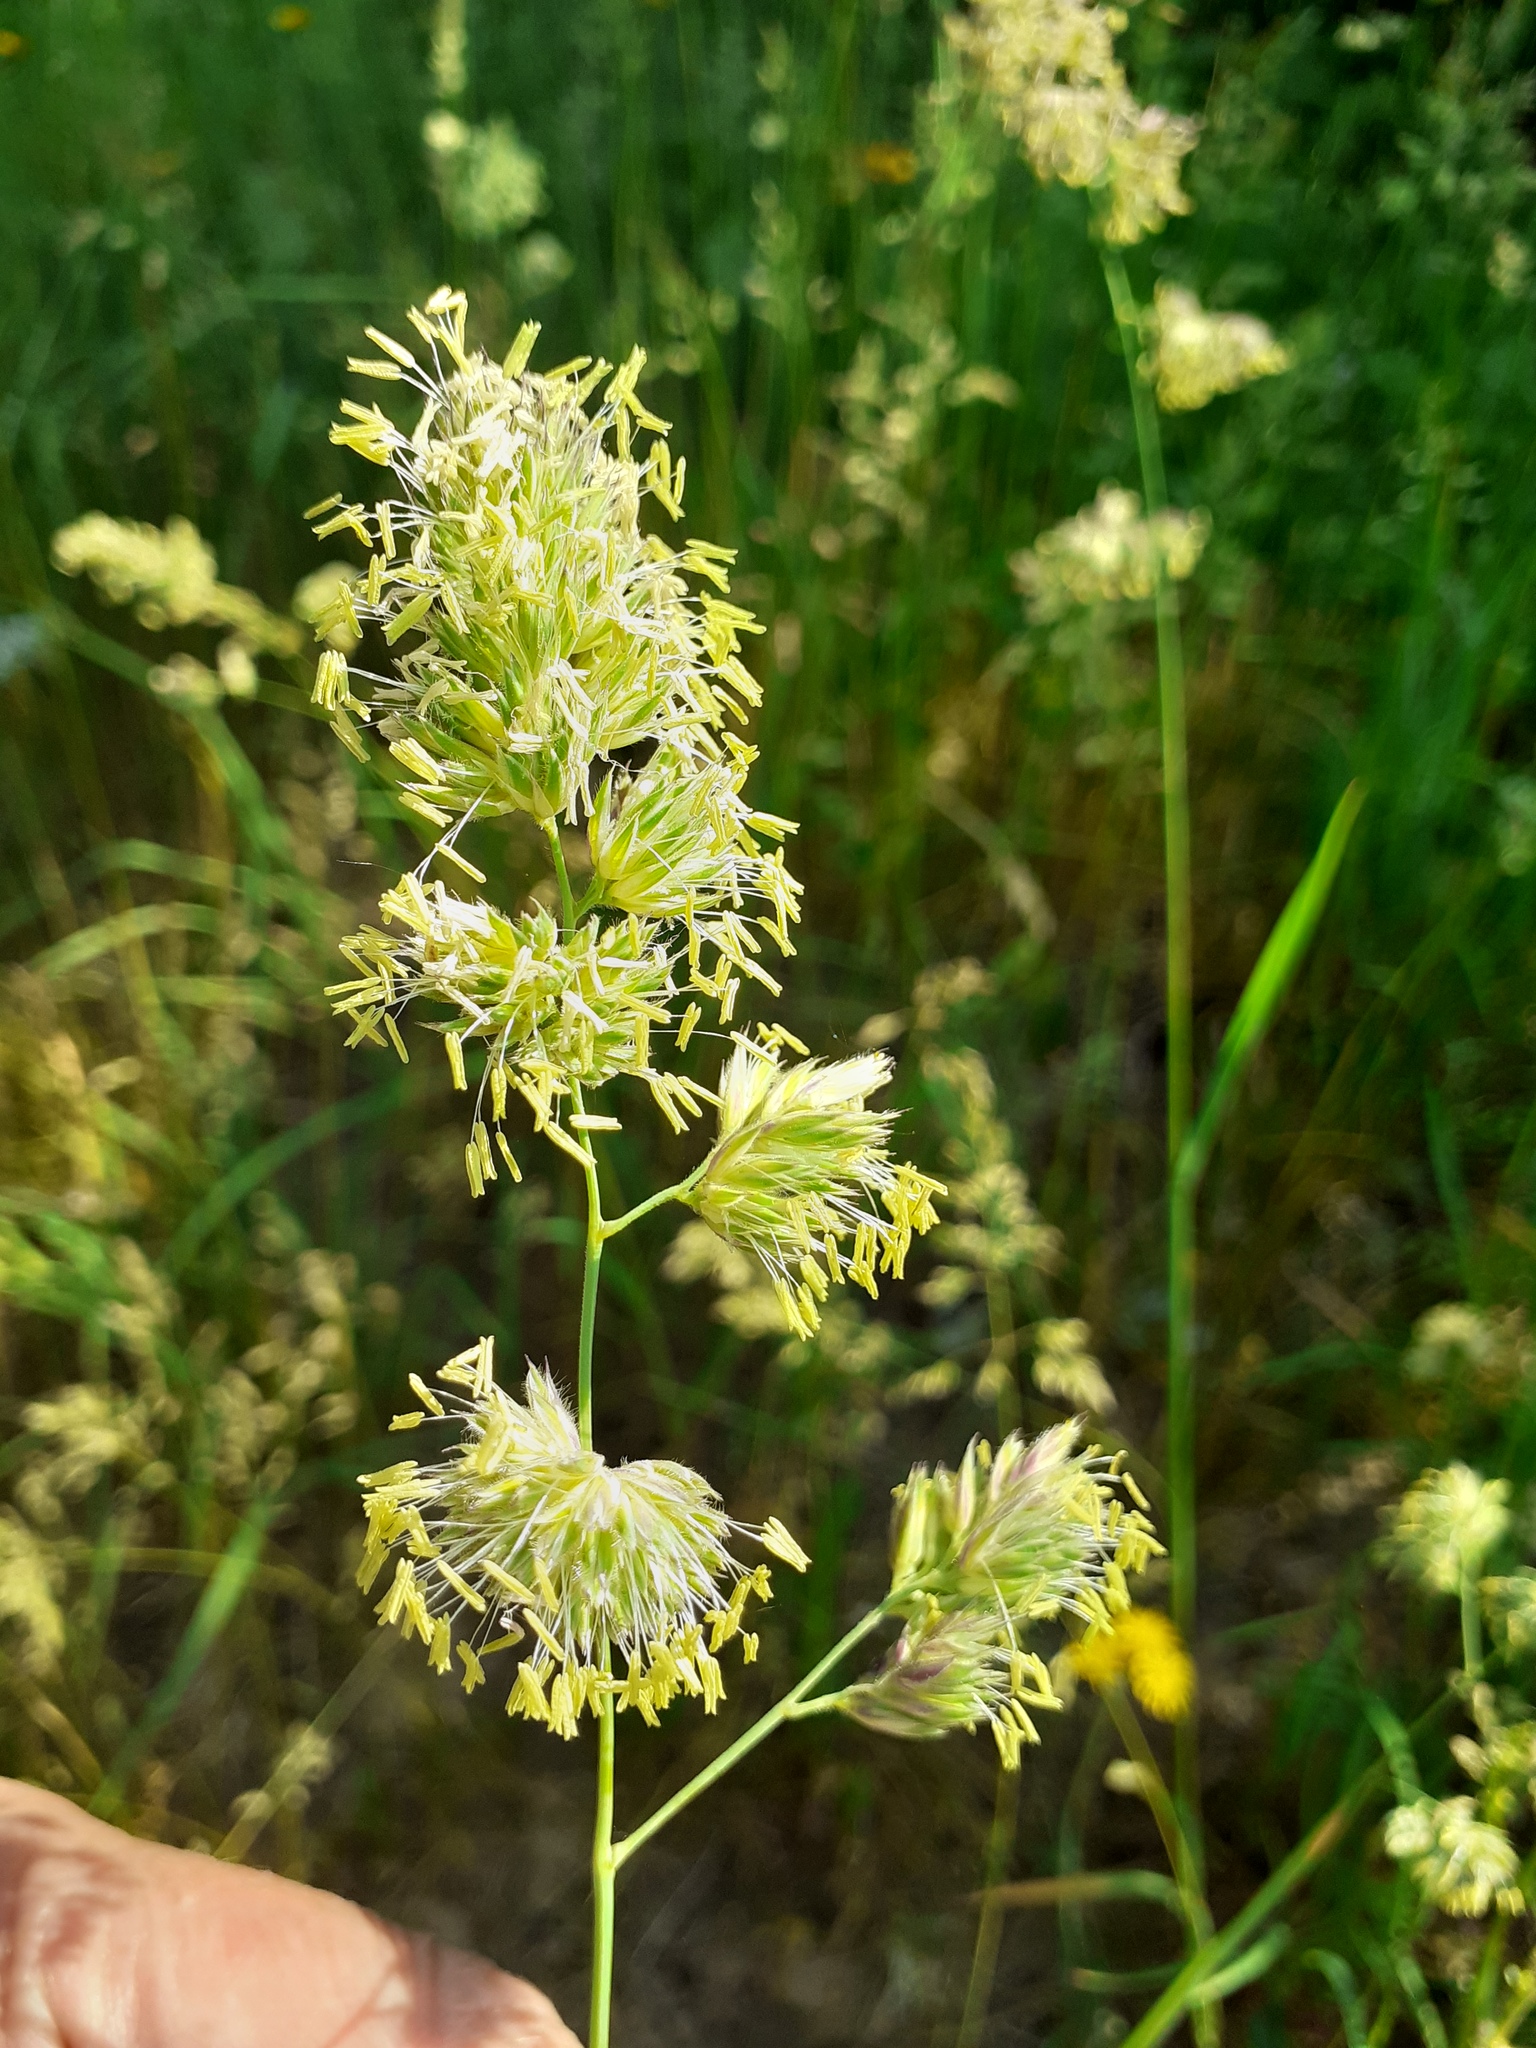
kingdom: Plantae
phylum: Tracheophyta
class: Liliopsida
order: Poales
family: Poaceae
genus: Dactylis
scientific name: Dactylis glomerata
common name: Orchardgrass
